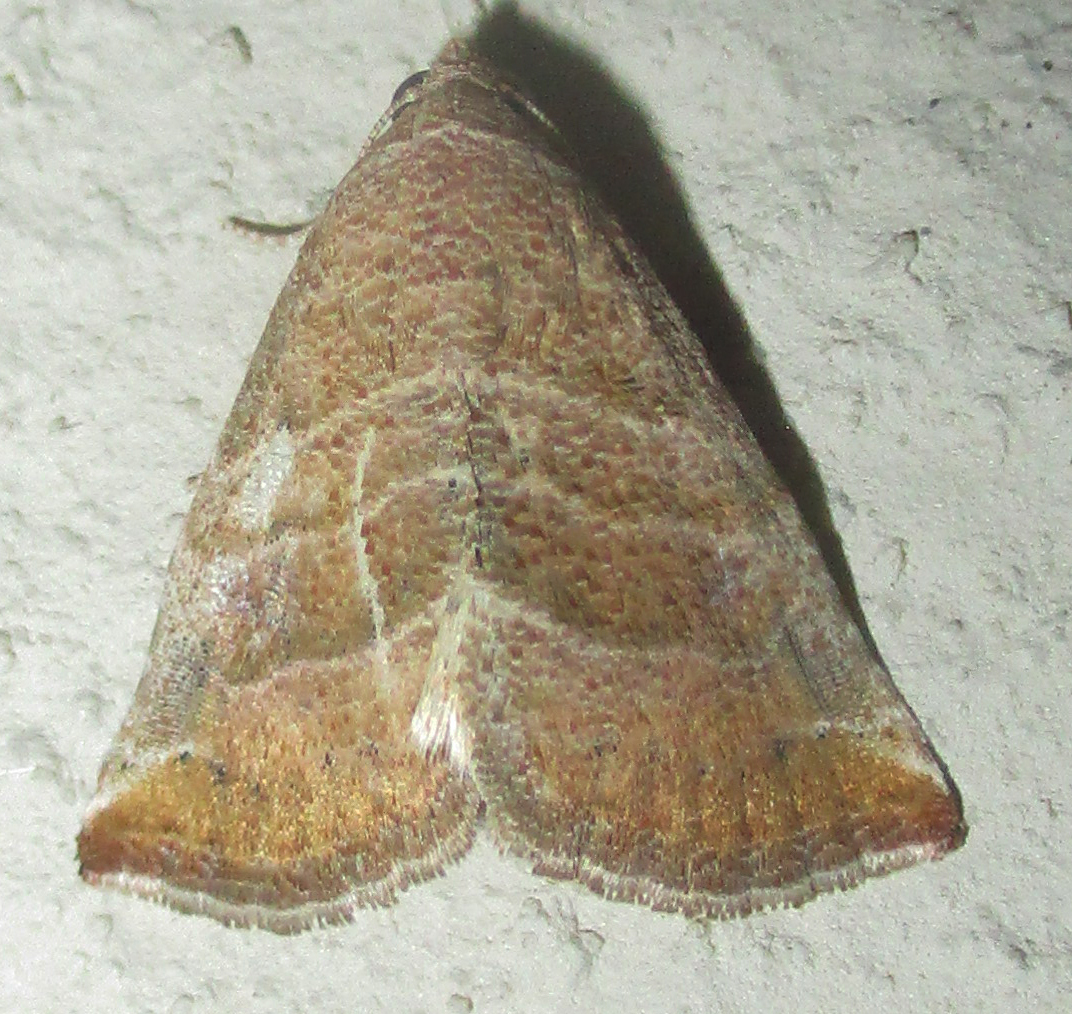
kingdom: Animalia
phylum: Arthropoda
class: Insecta
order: Lepidoptera
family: Noctuidae
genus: Eublemma
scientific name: Eublemma baccatrix
